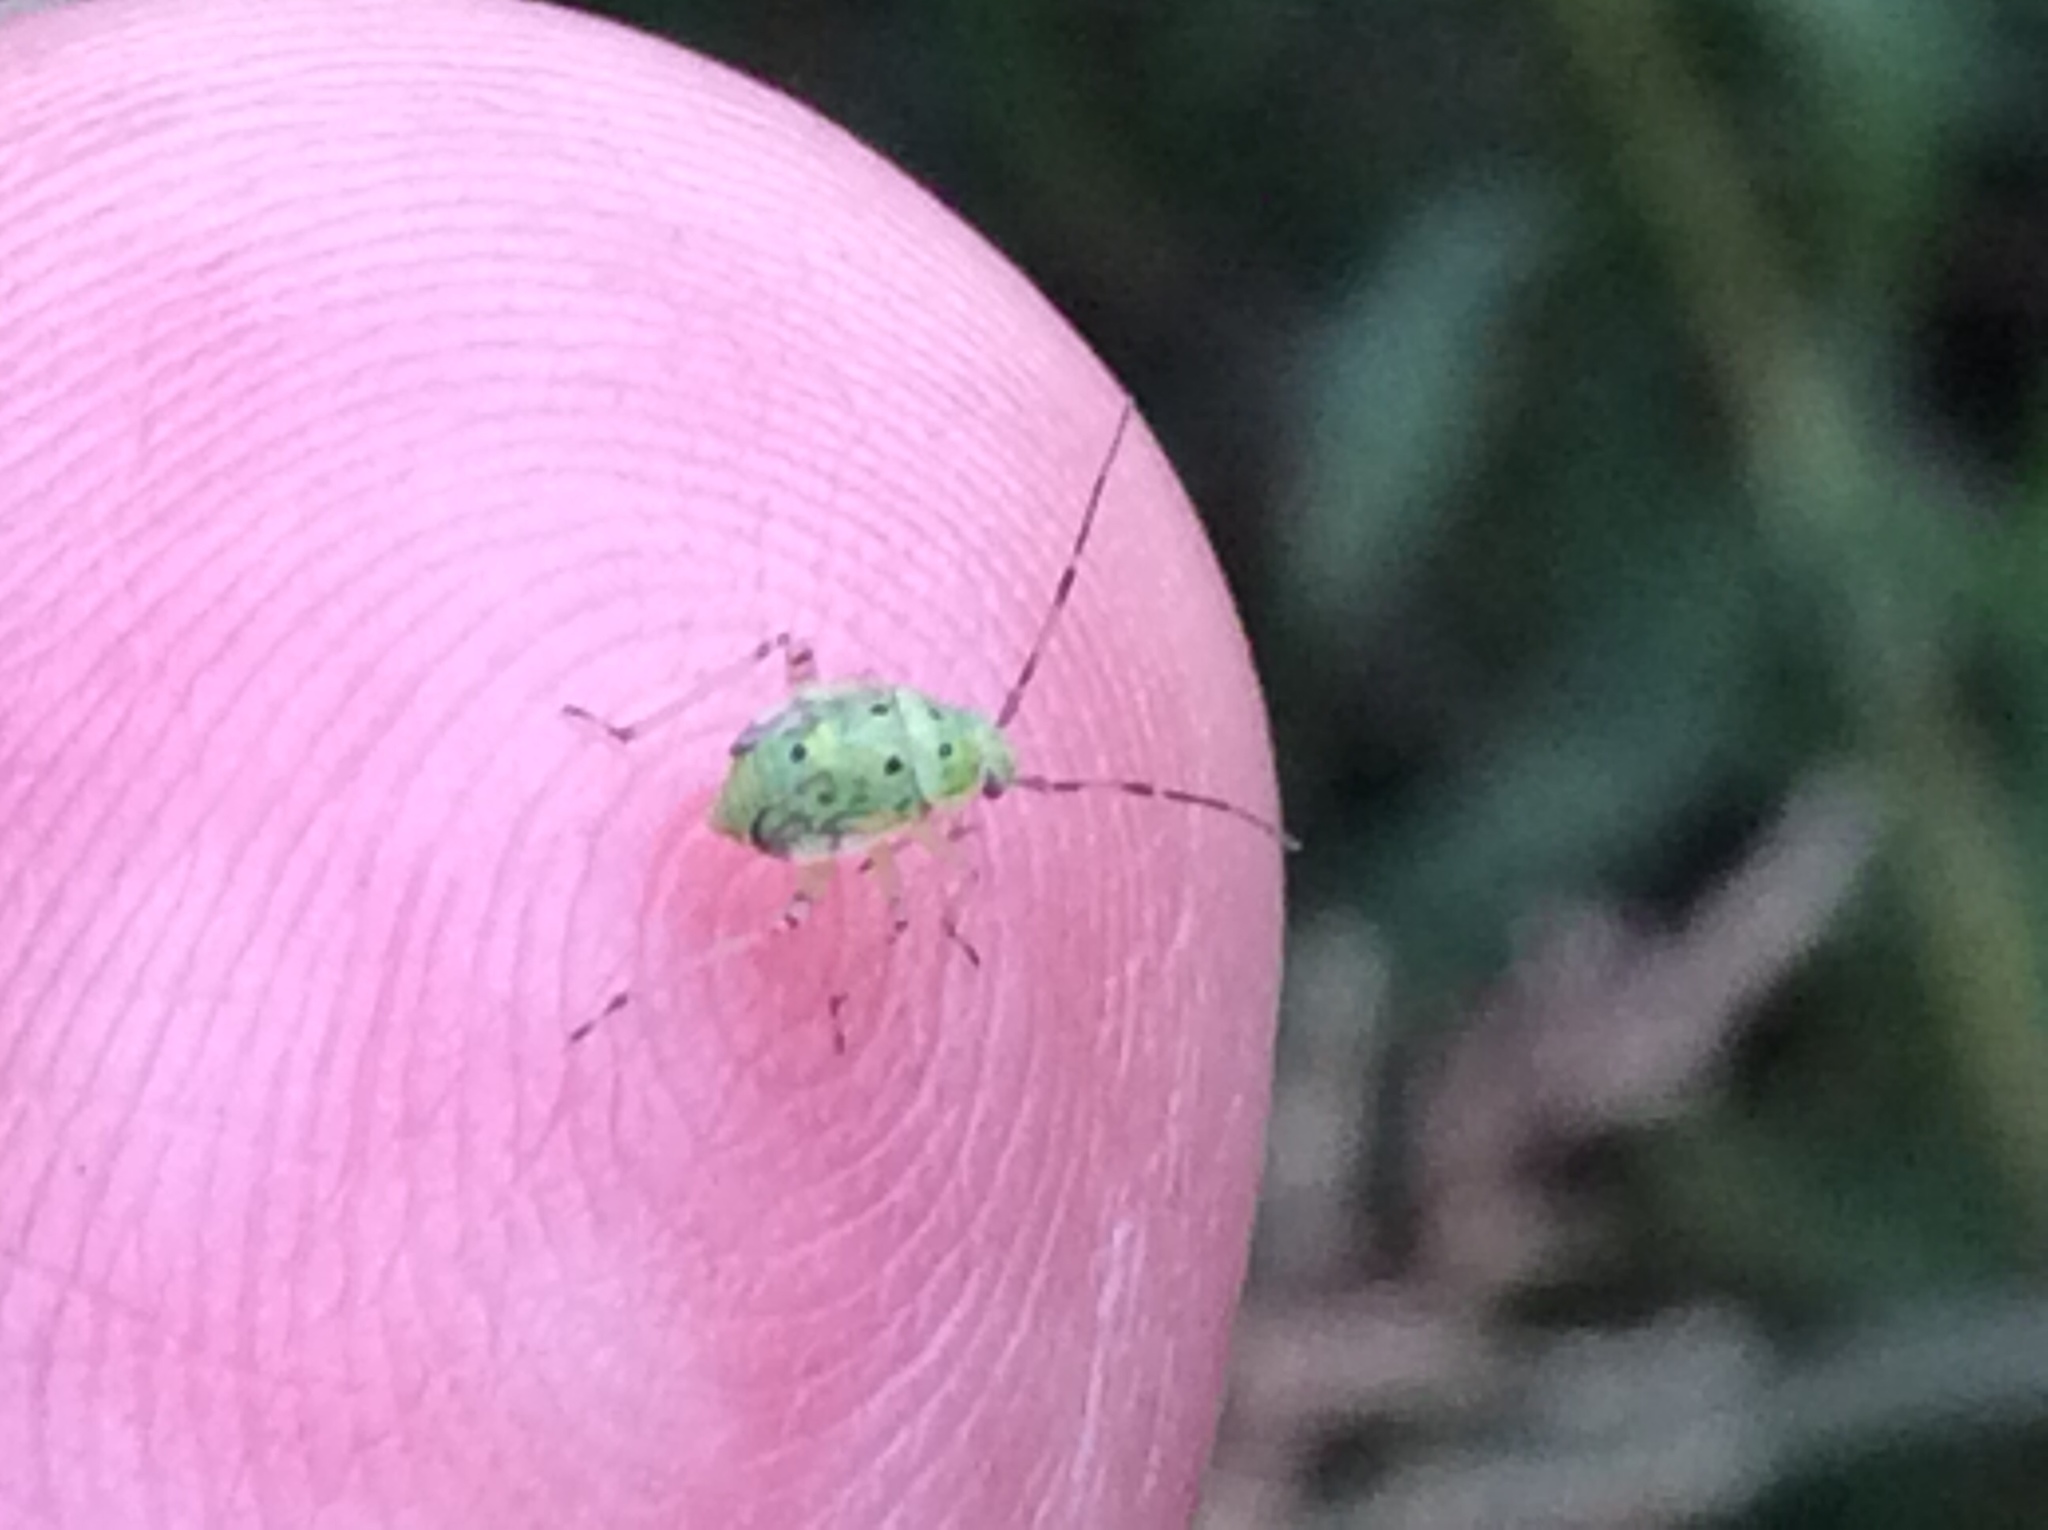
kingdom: Animalia
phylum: Arthropoda
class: Insecta
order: Hemiptera
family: Miridae
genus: Lygus
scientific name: Lygus lineolaris
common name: North american tarnished plant bug
